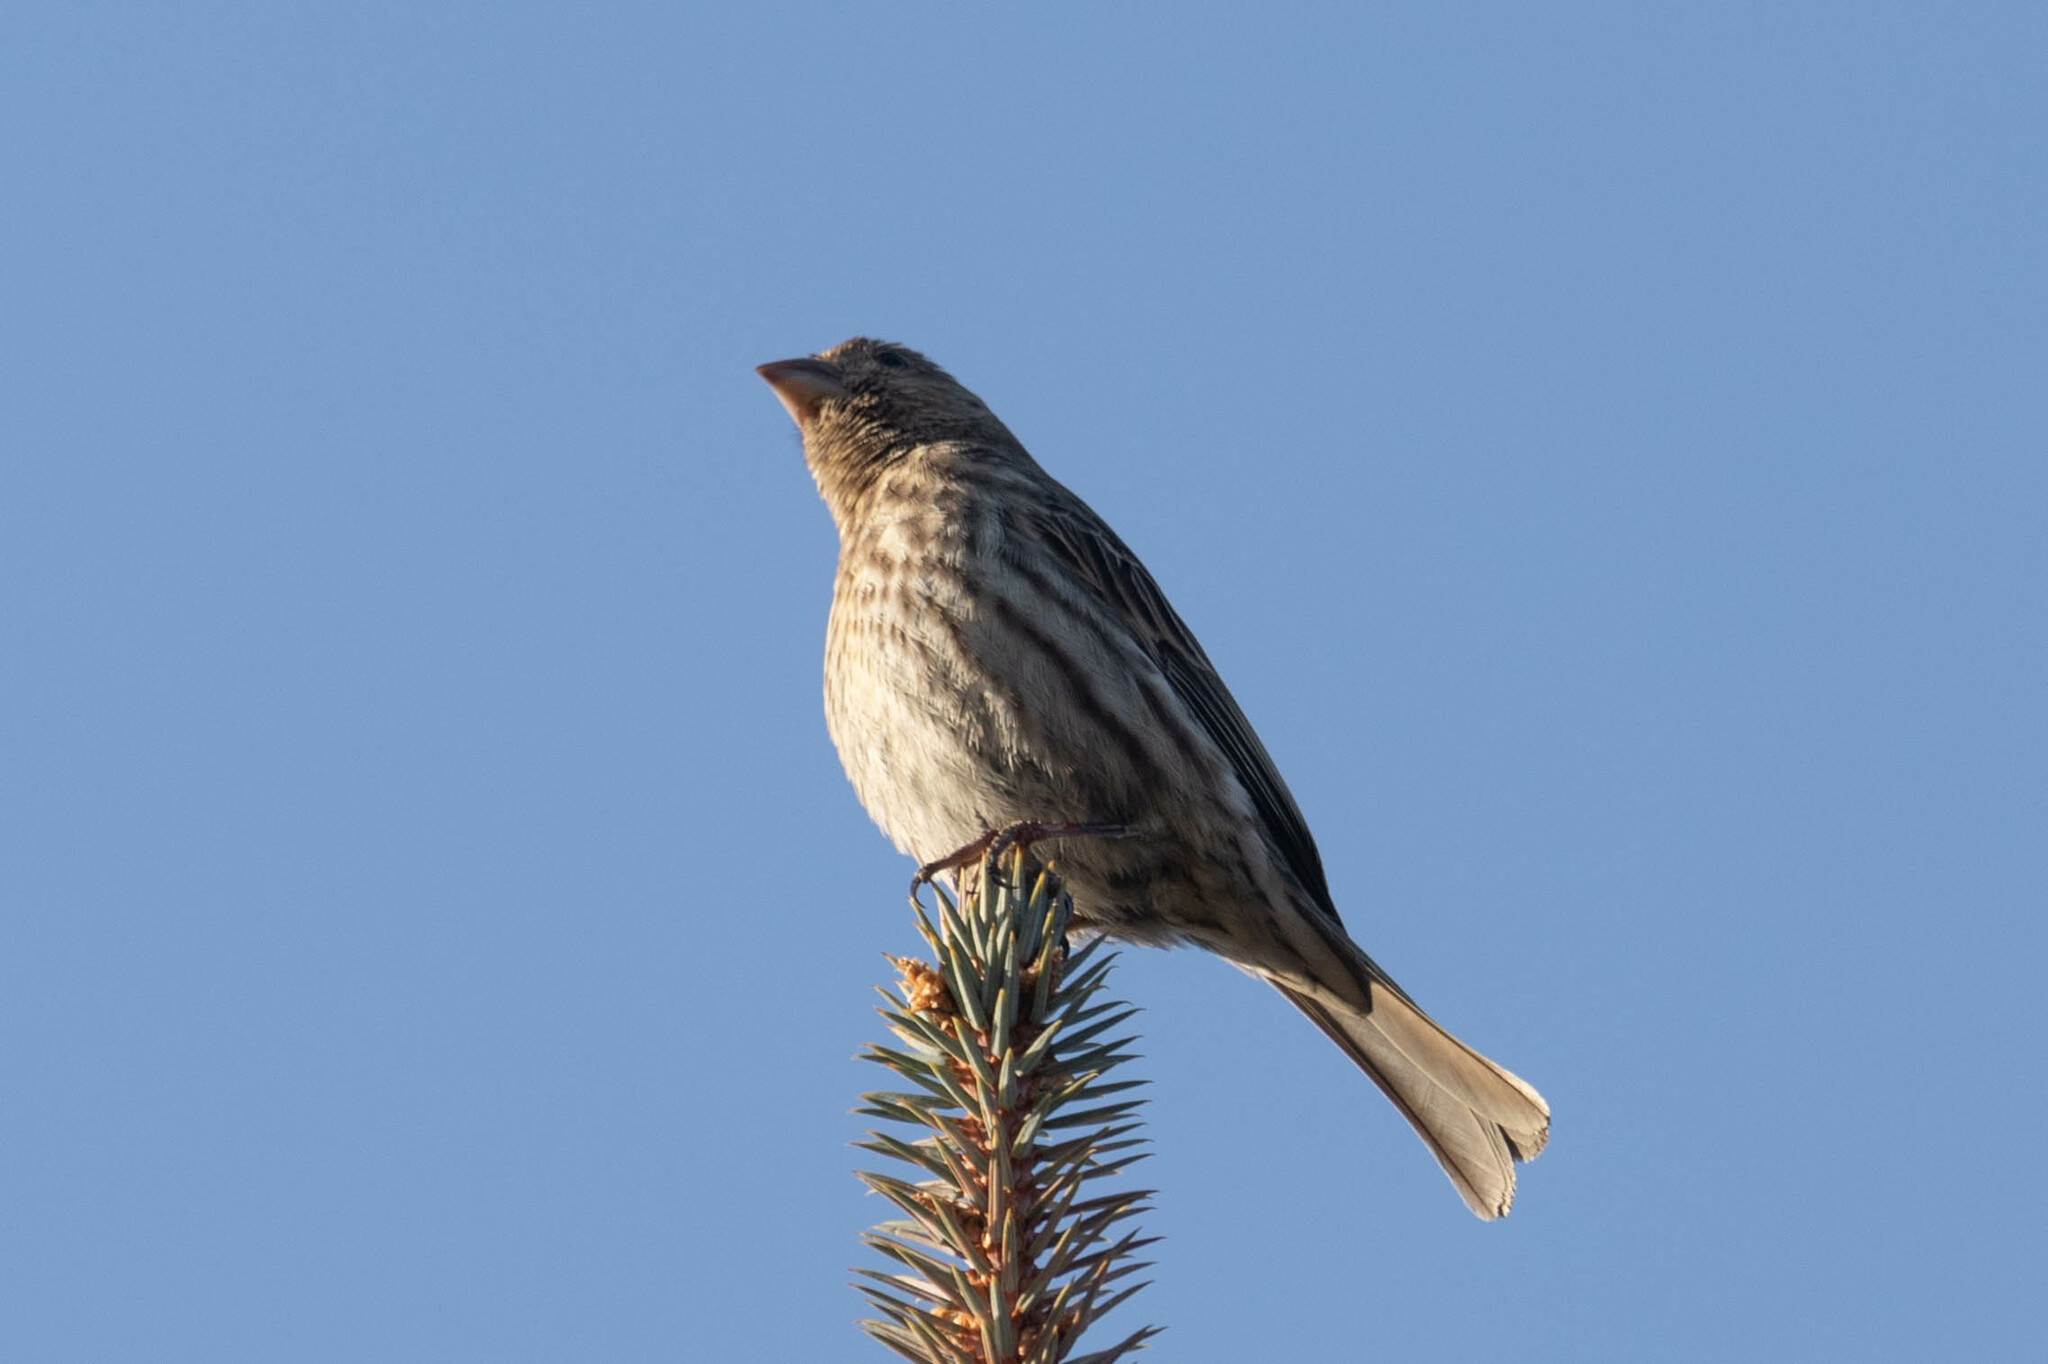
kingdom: Animalia
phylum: Chordata
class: Aves
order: Passeriformes
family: Fringillidae
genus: Haemorhous
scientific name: Haemorhous mexicanus
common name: House finch
